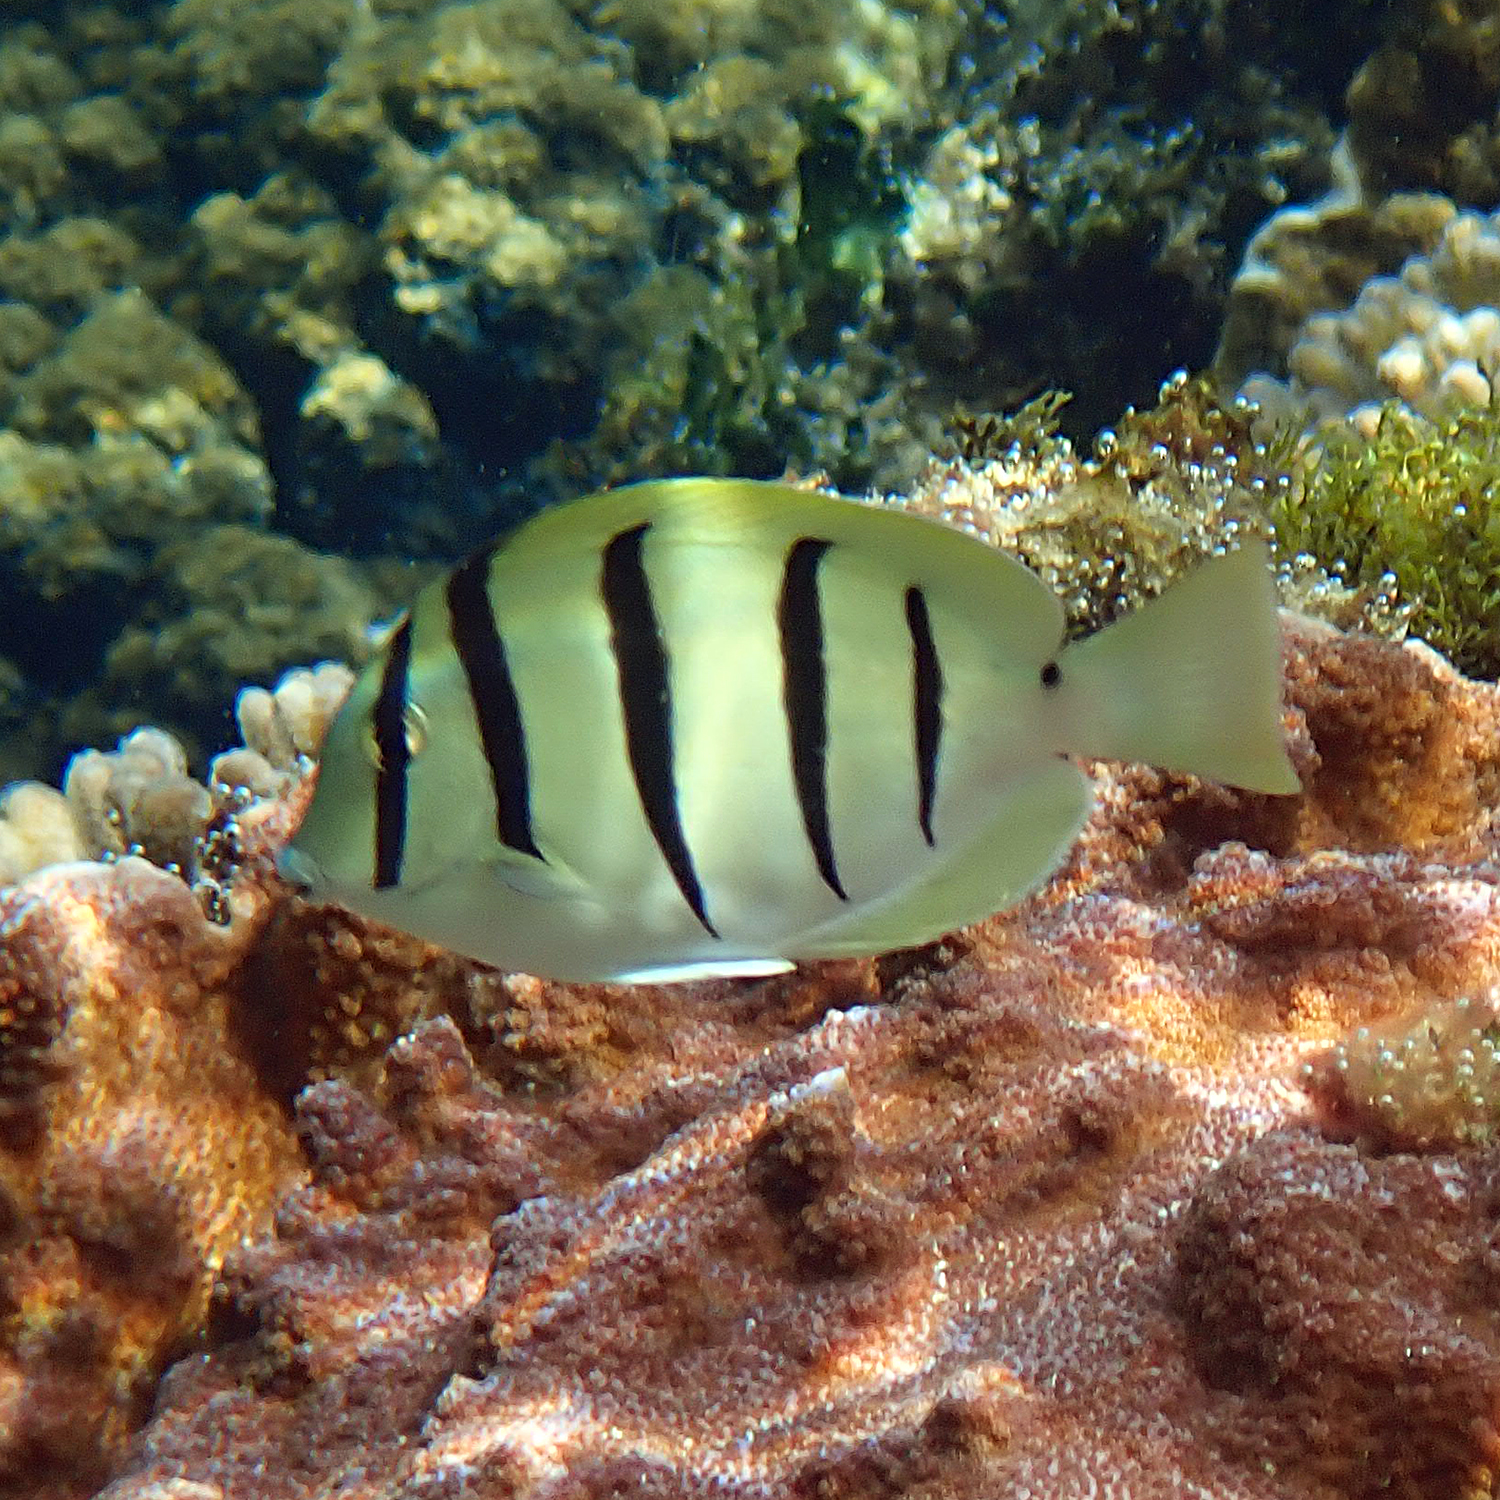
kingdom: Animalia
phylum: Chordata
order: Perciformes
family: Acanthuridae
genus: Acanthurus
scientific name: Acanthurus triostegus
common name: Convict surgeonfish
